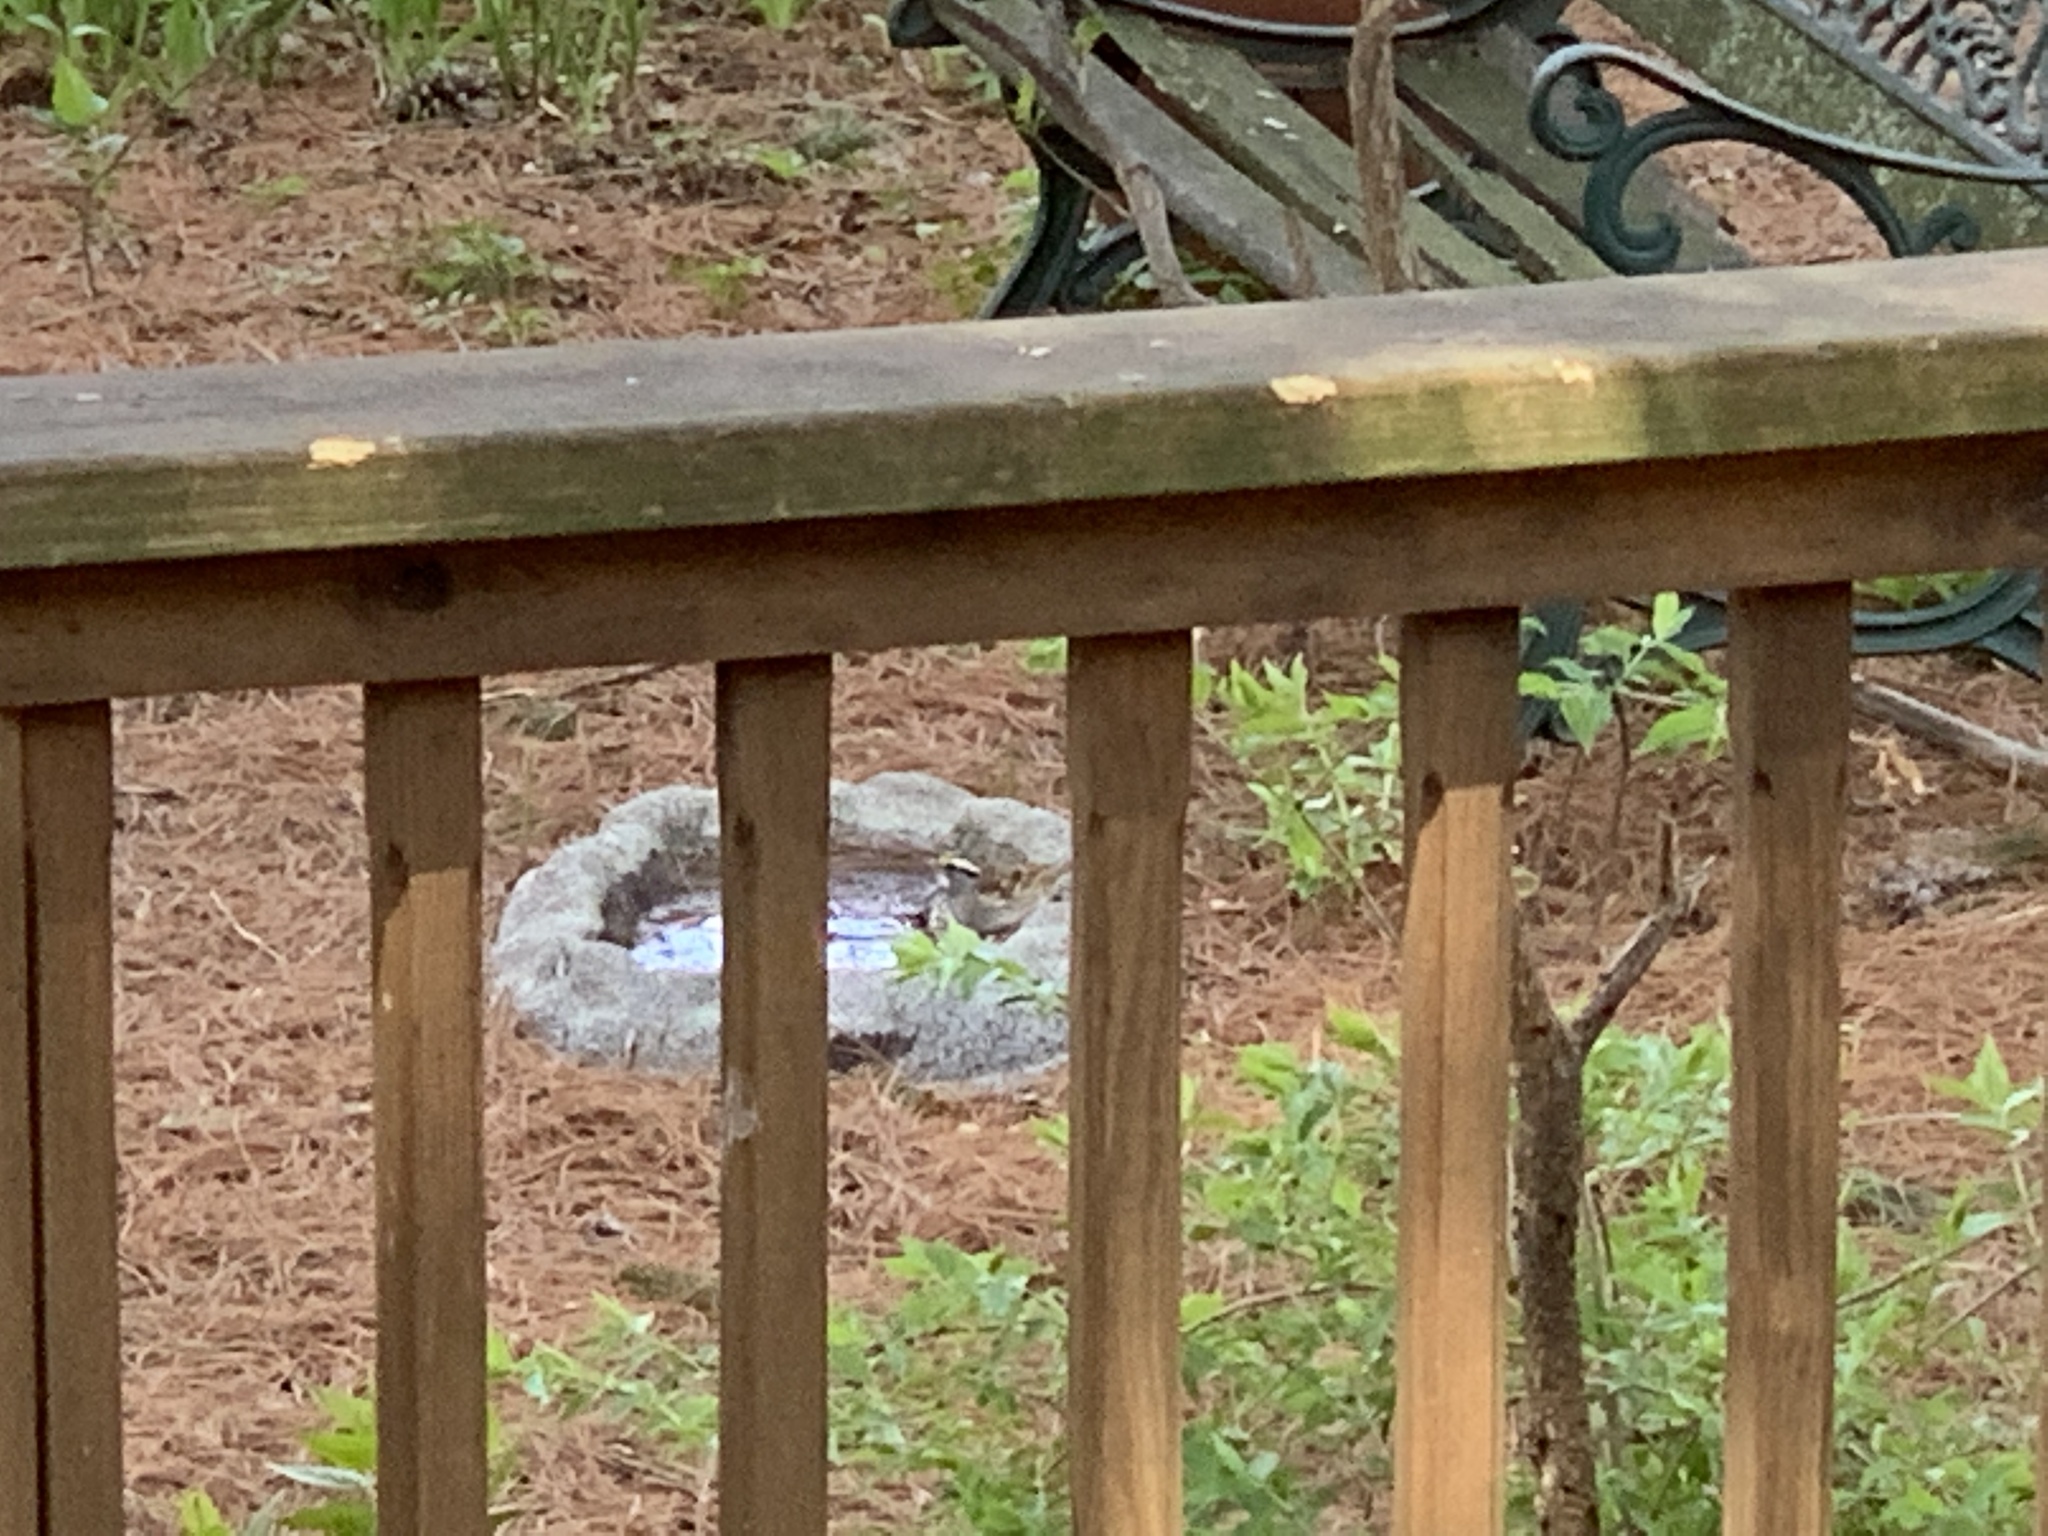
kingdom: Animalia
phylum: Chordata
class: Aves
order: Passeriformes
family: Passerellidae
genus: Zonotrichia
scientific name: Zonotrichia albicollis
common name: White-throated sparrow
